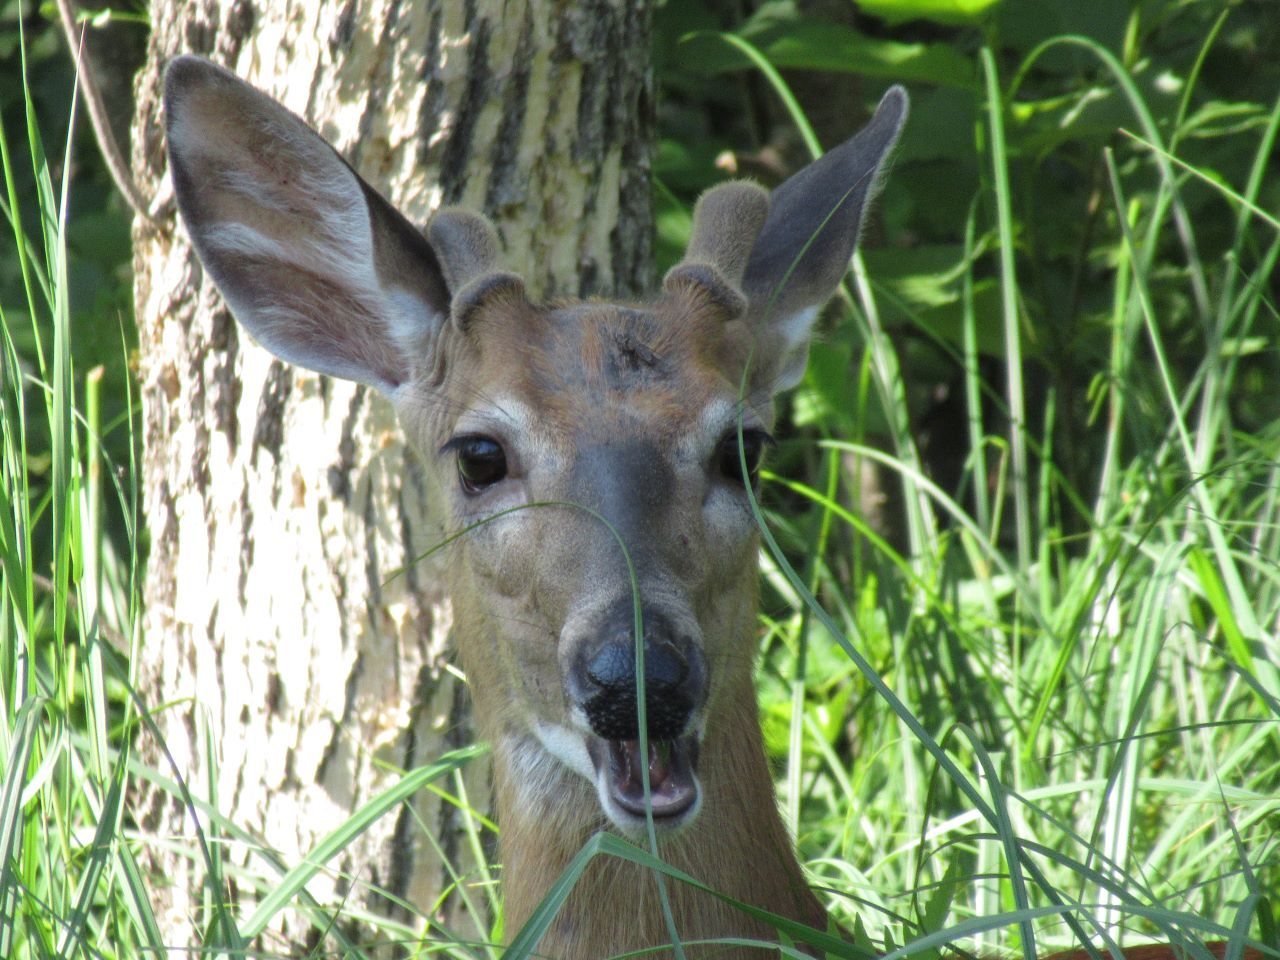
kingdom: Animalia
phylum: Chordata
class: Mammalia
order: Artiodactyla
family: Cervidae
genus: Odocoileus
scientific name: Odocoileus virginianus
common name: White-tailed deer
